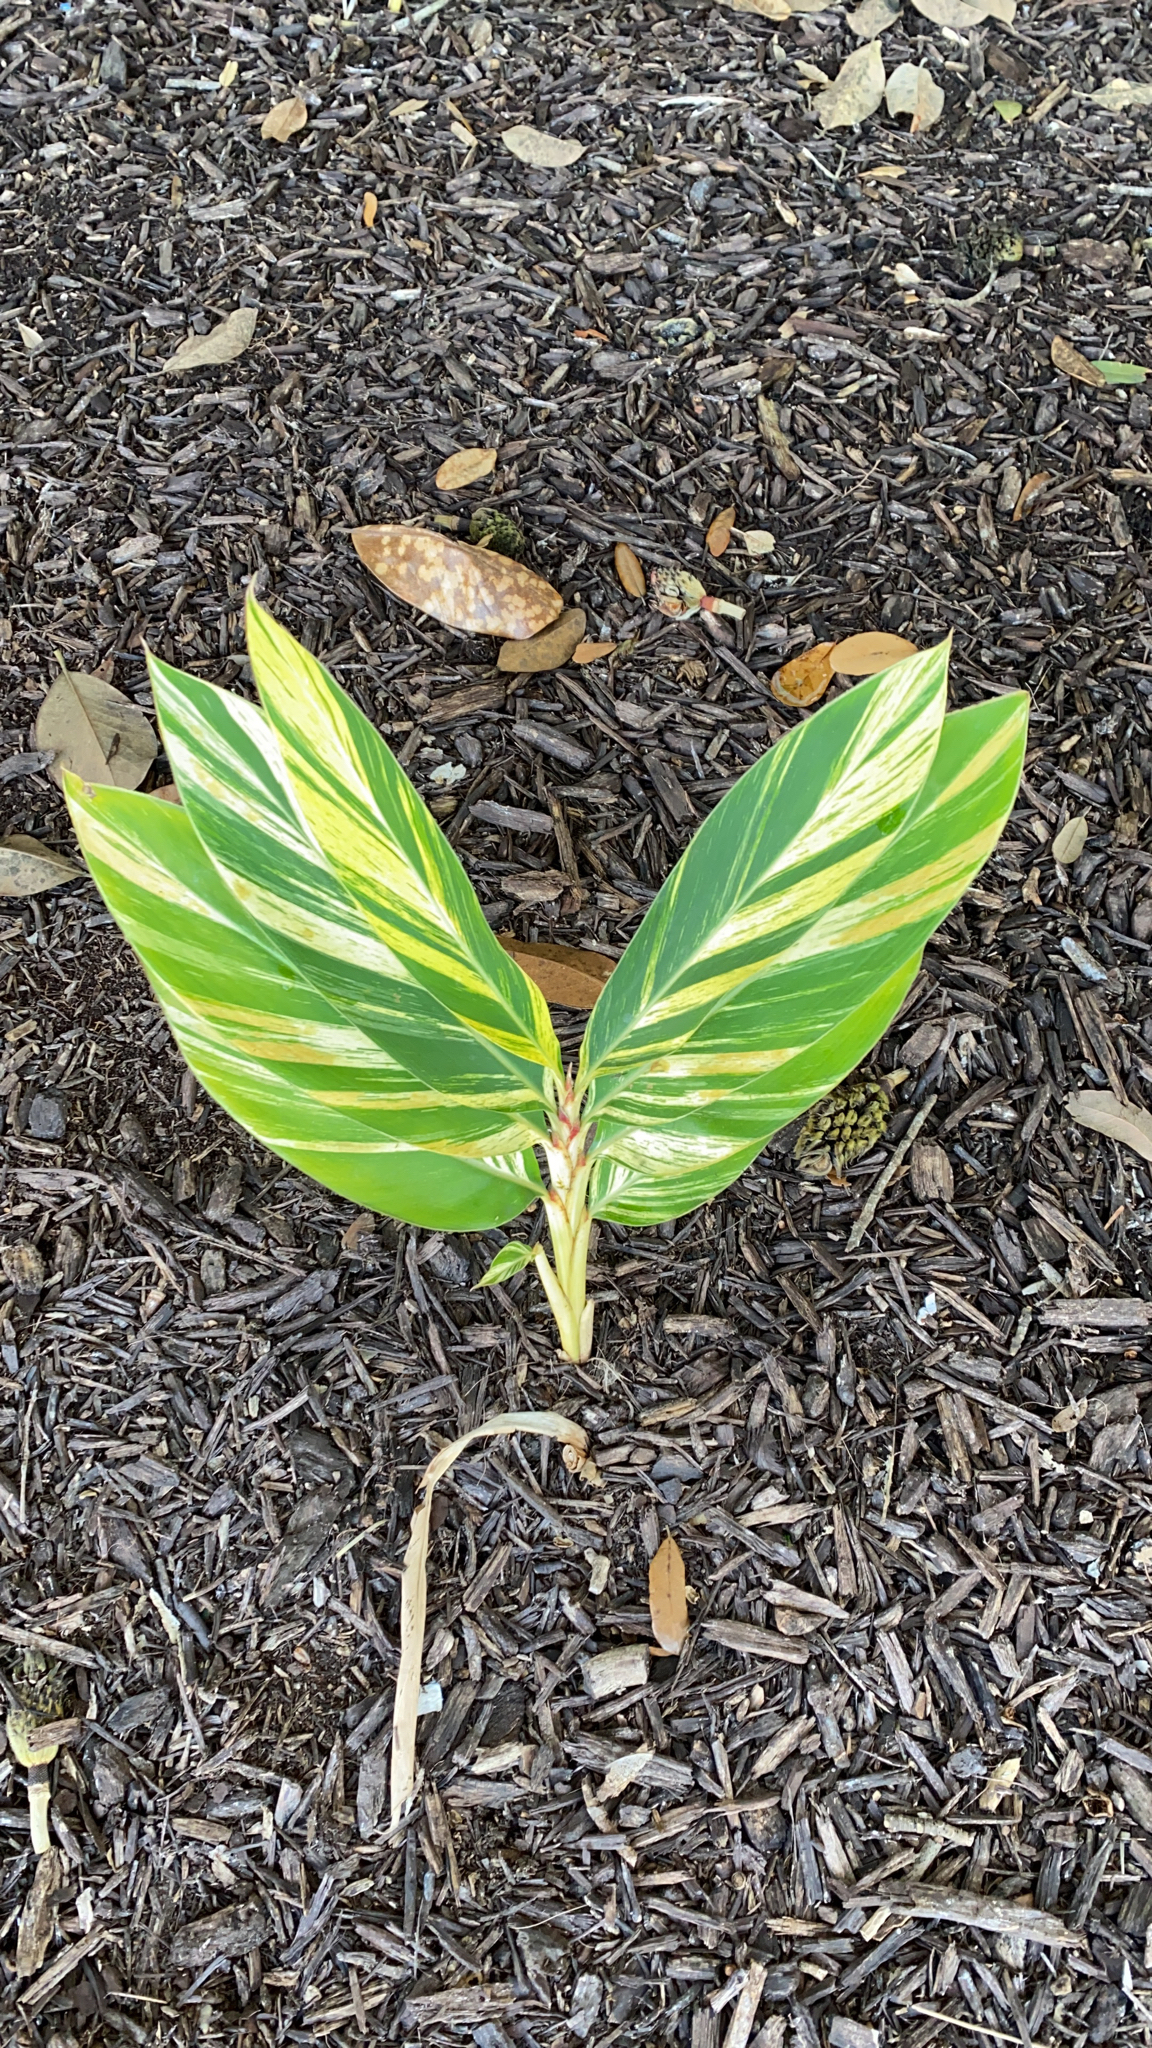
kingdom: Plantae
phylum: Tracheophyta
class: Liliopsida
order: Zingiberales
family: Zingiberaceae
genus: Alpinia
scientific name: Alpinia zerumbet
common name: Shellplant
